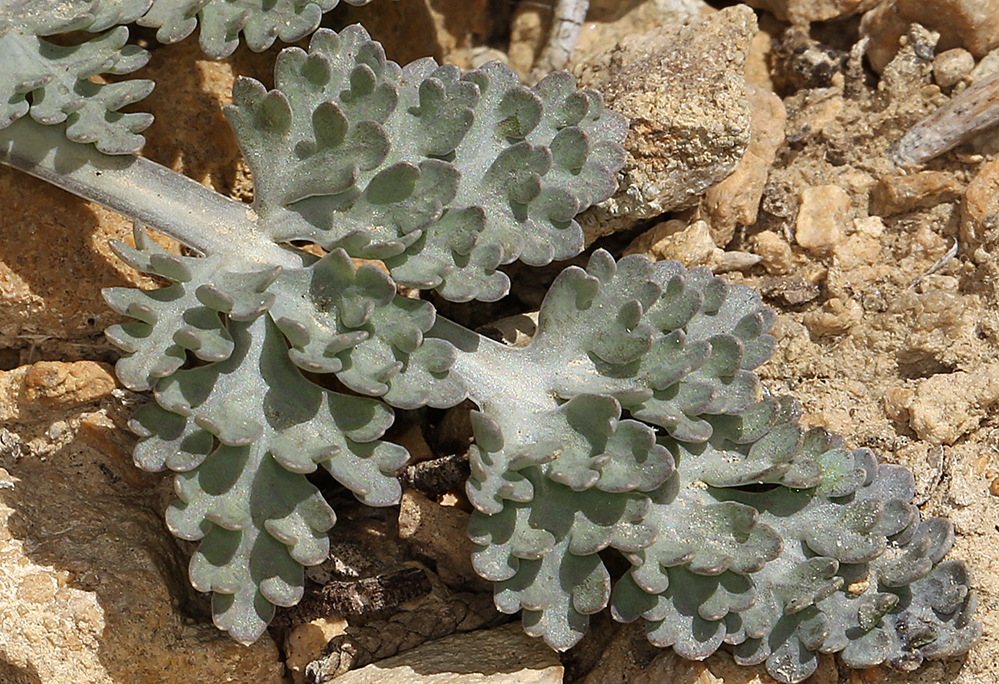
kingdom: Plantae
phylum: Tracheophyta
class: Magnoliopsida
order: Apiales
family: Apiaceae
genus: Vesper
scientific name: Vesper purpurascens
